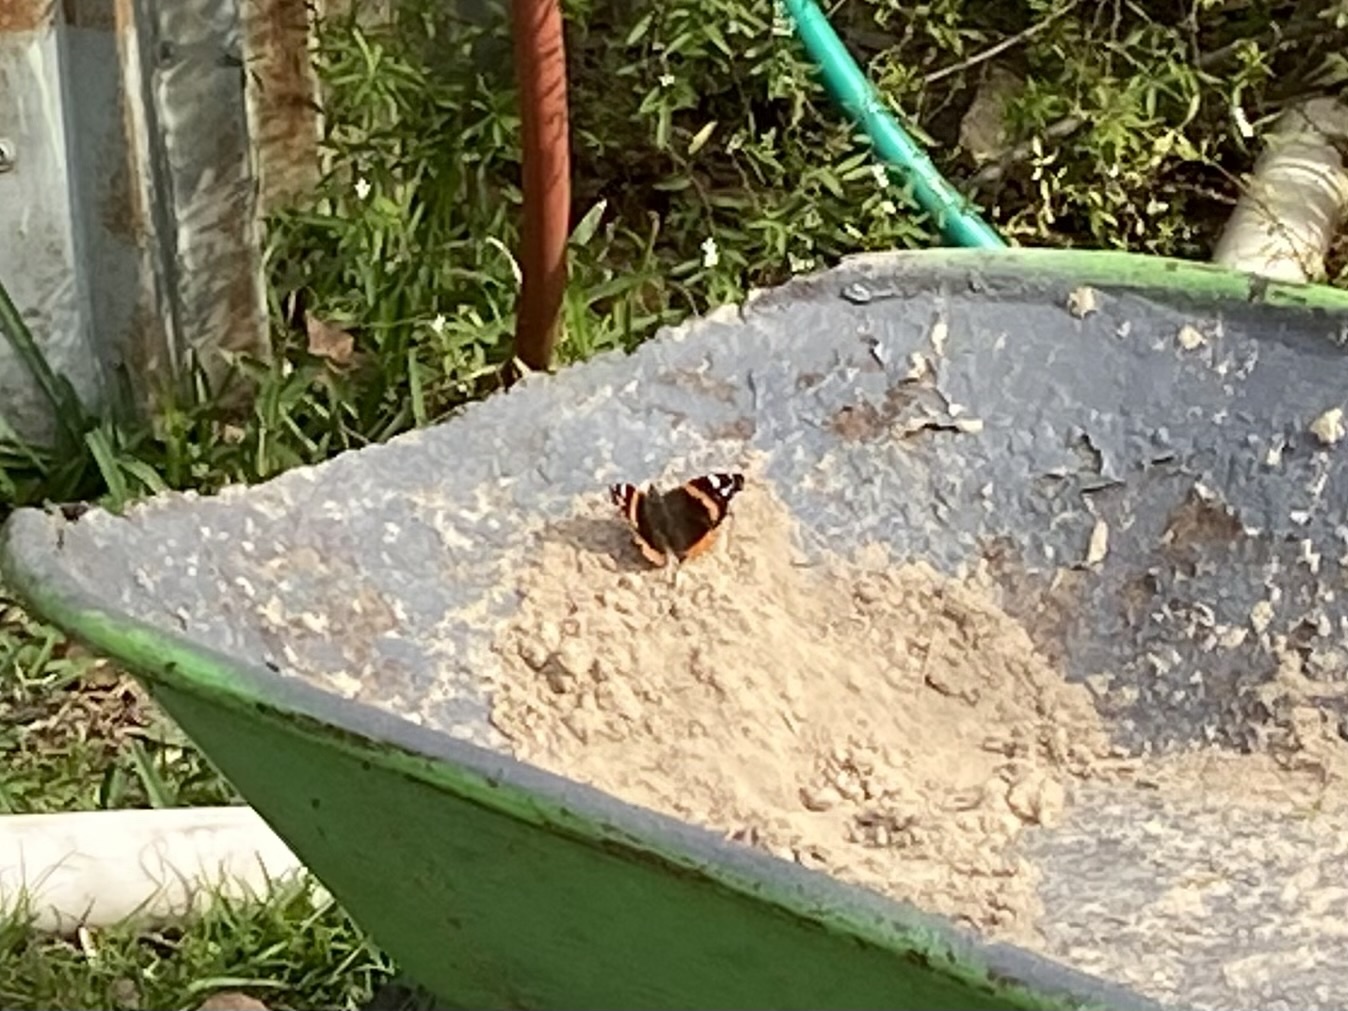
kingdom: Animalia
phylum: Arthropoda
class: Insecta
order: Lepidoptera
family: Nymphalidae
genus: Vanessa
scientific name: Vanessa atalanta
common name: Red admiral
